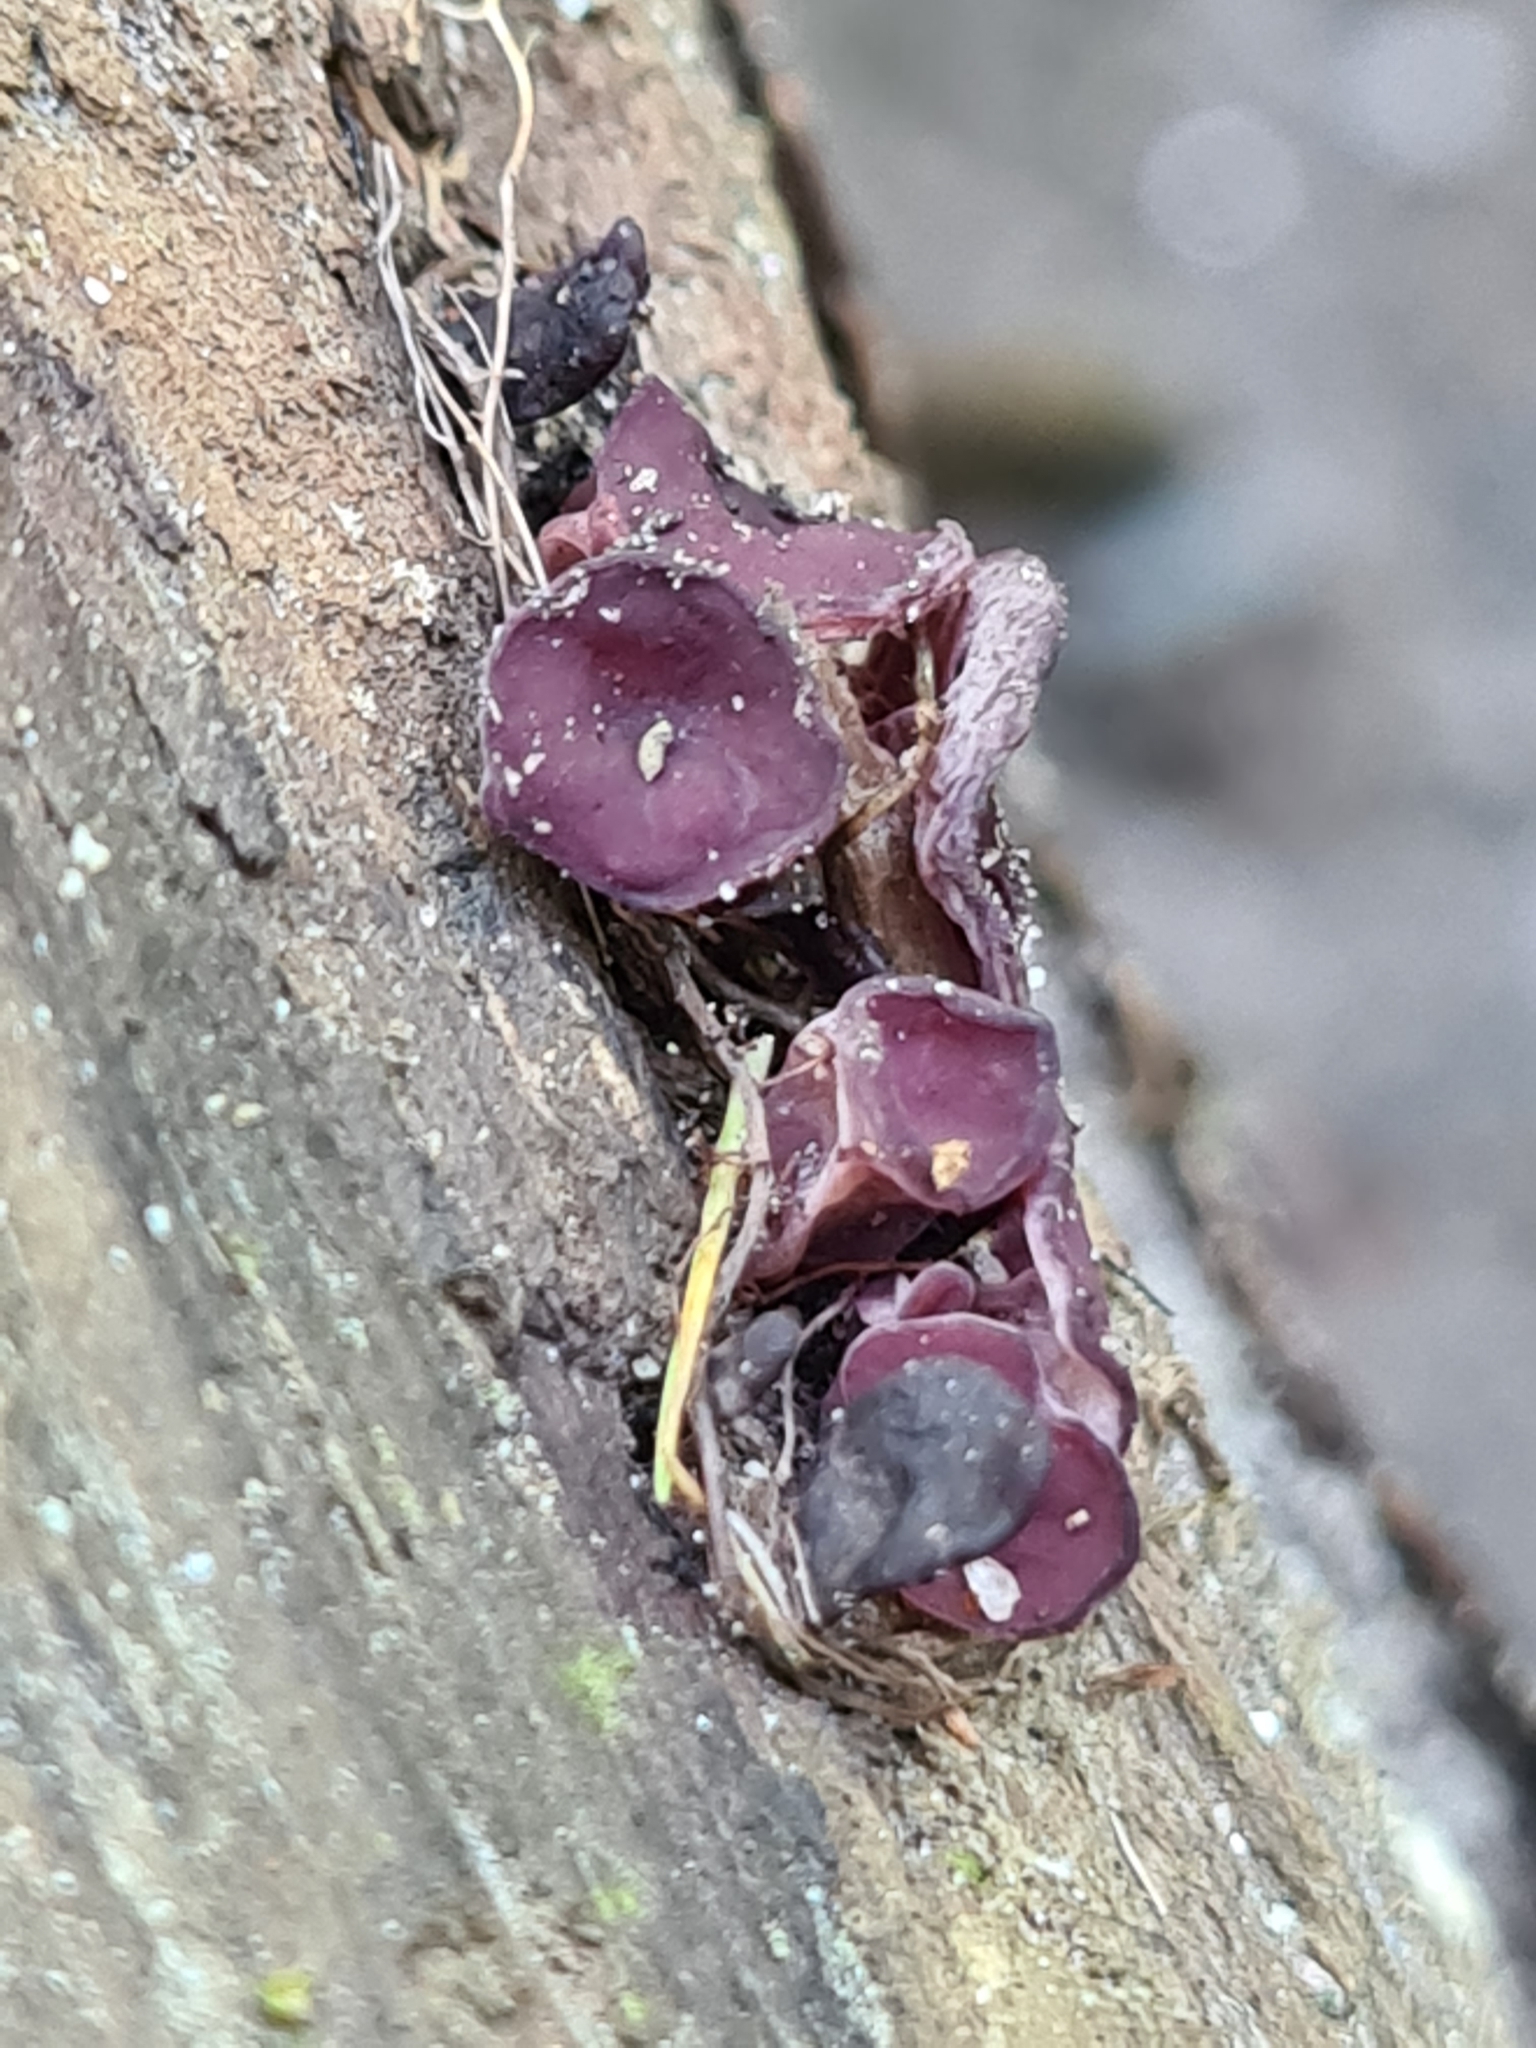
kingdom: Fungi
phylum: Ascomycota
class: Leotiomycetes
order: Helotiales
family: Gelatinodiscaceae
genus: Ascocoryne
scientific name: Ascocoryne sarcoides
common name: Purple jellydisc
